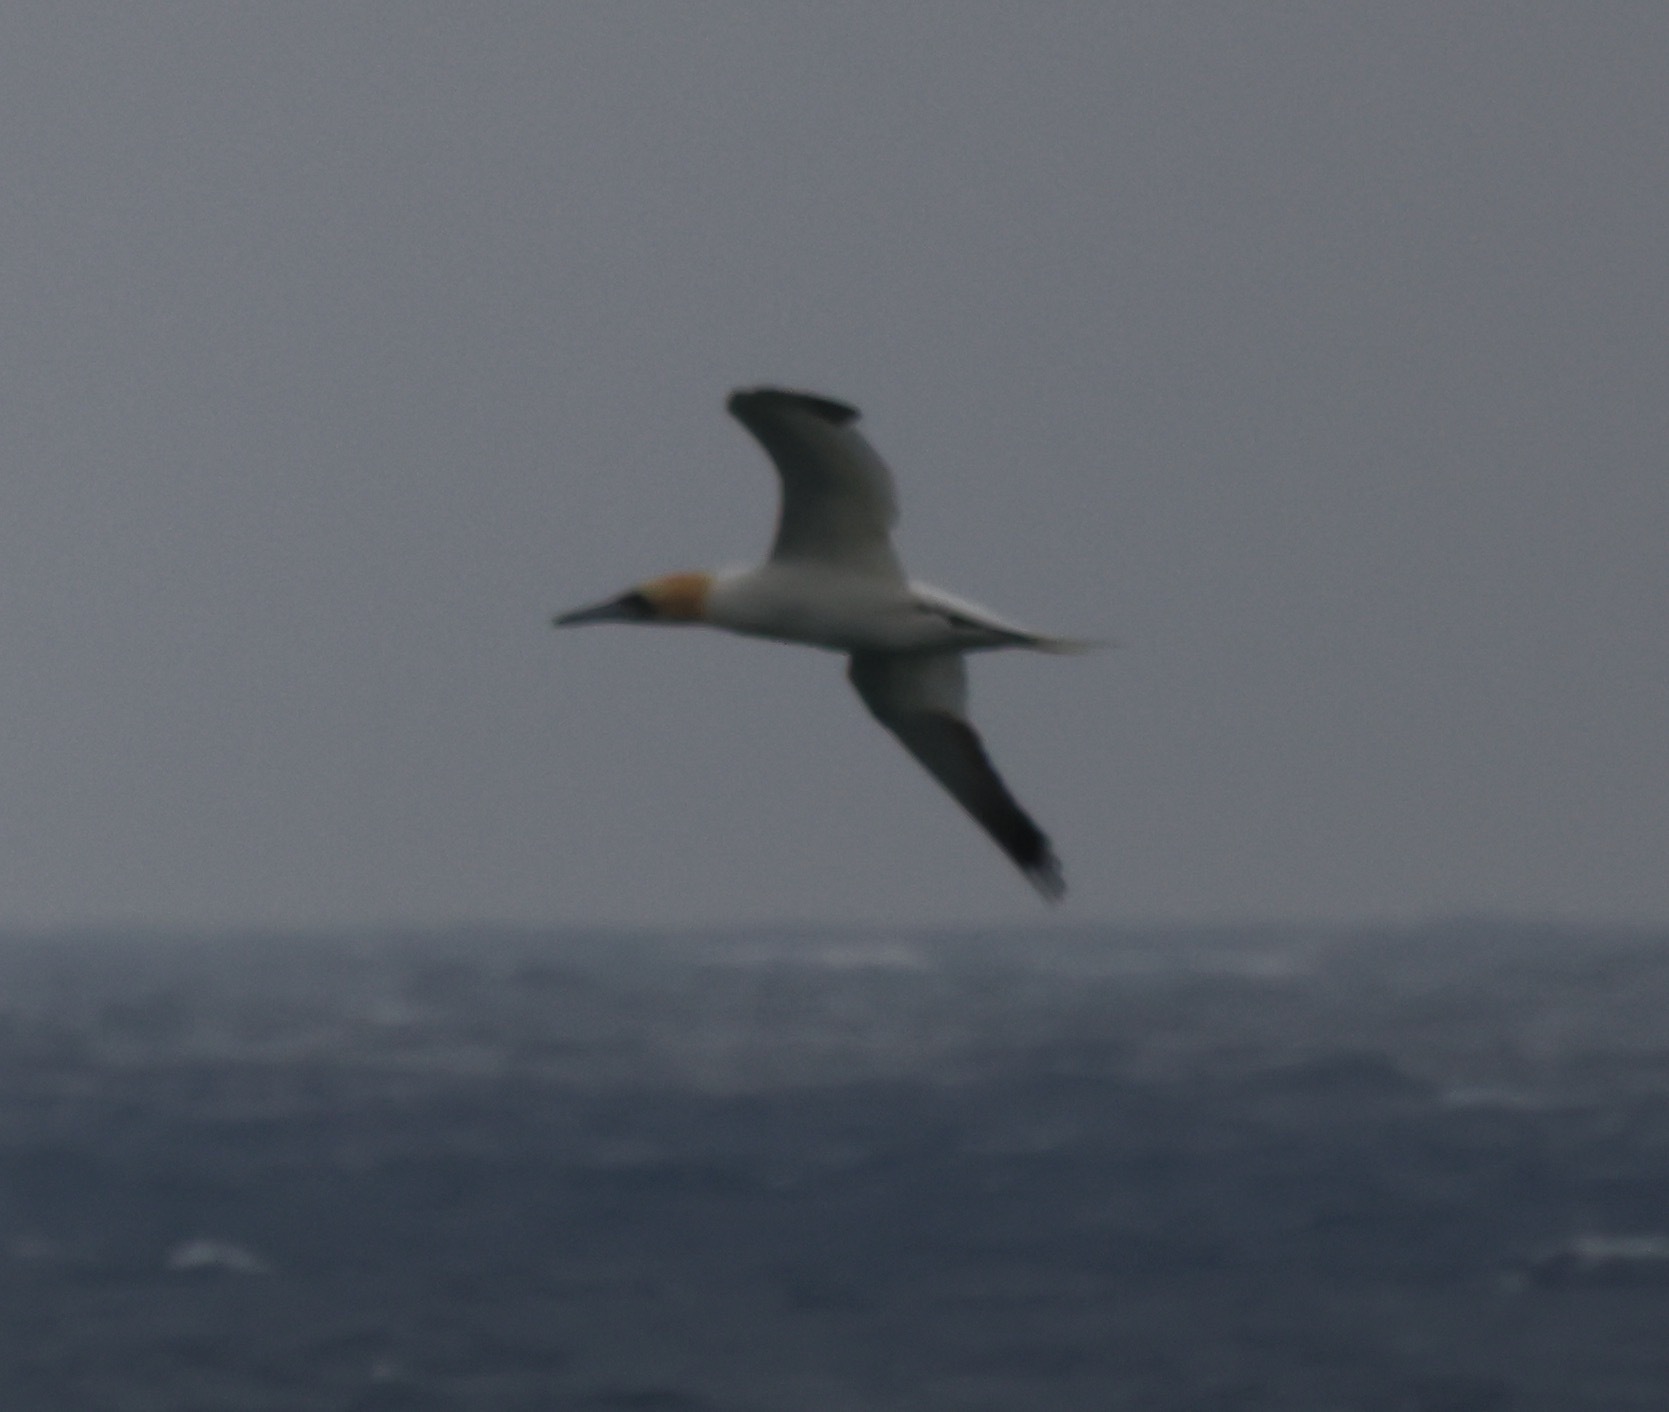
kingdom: Animalia
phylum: Chordata
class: Aves
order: Suliformes
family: Sulidae
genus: Morus
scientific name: Morus bassanus
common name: Northern gannet
